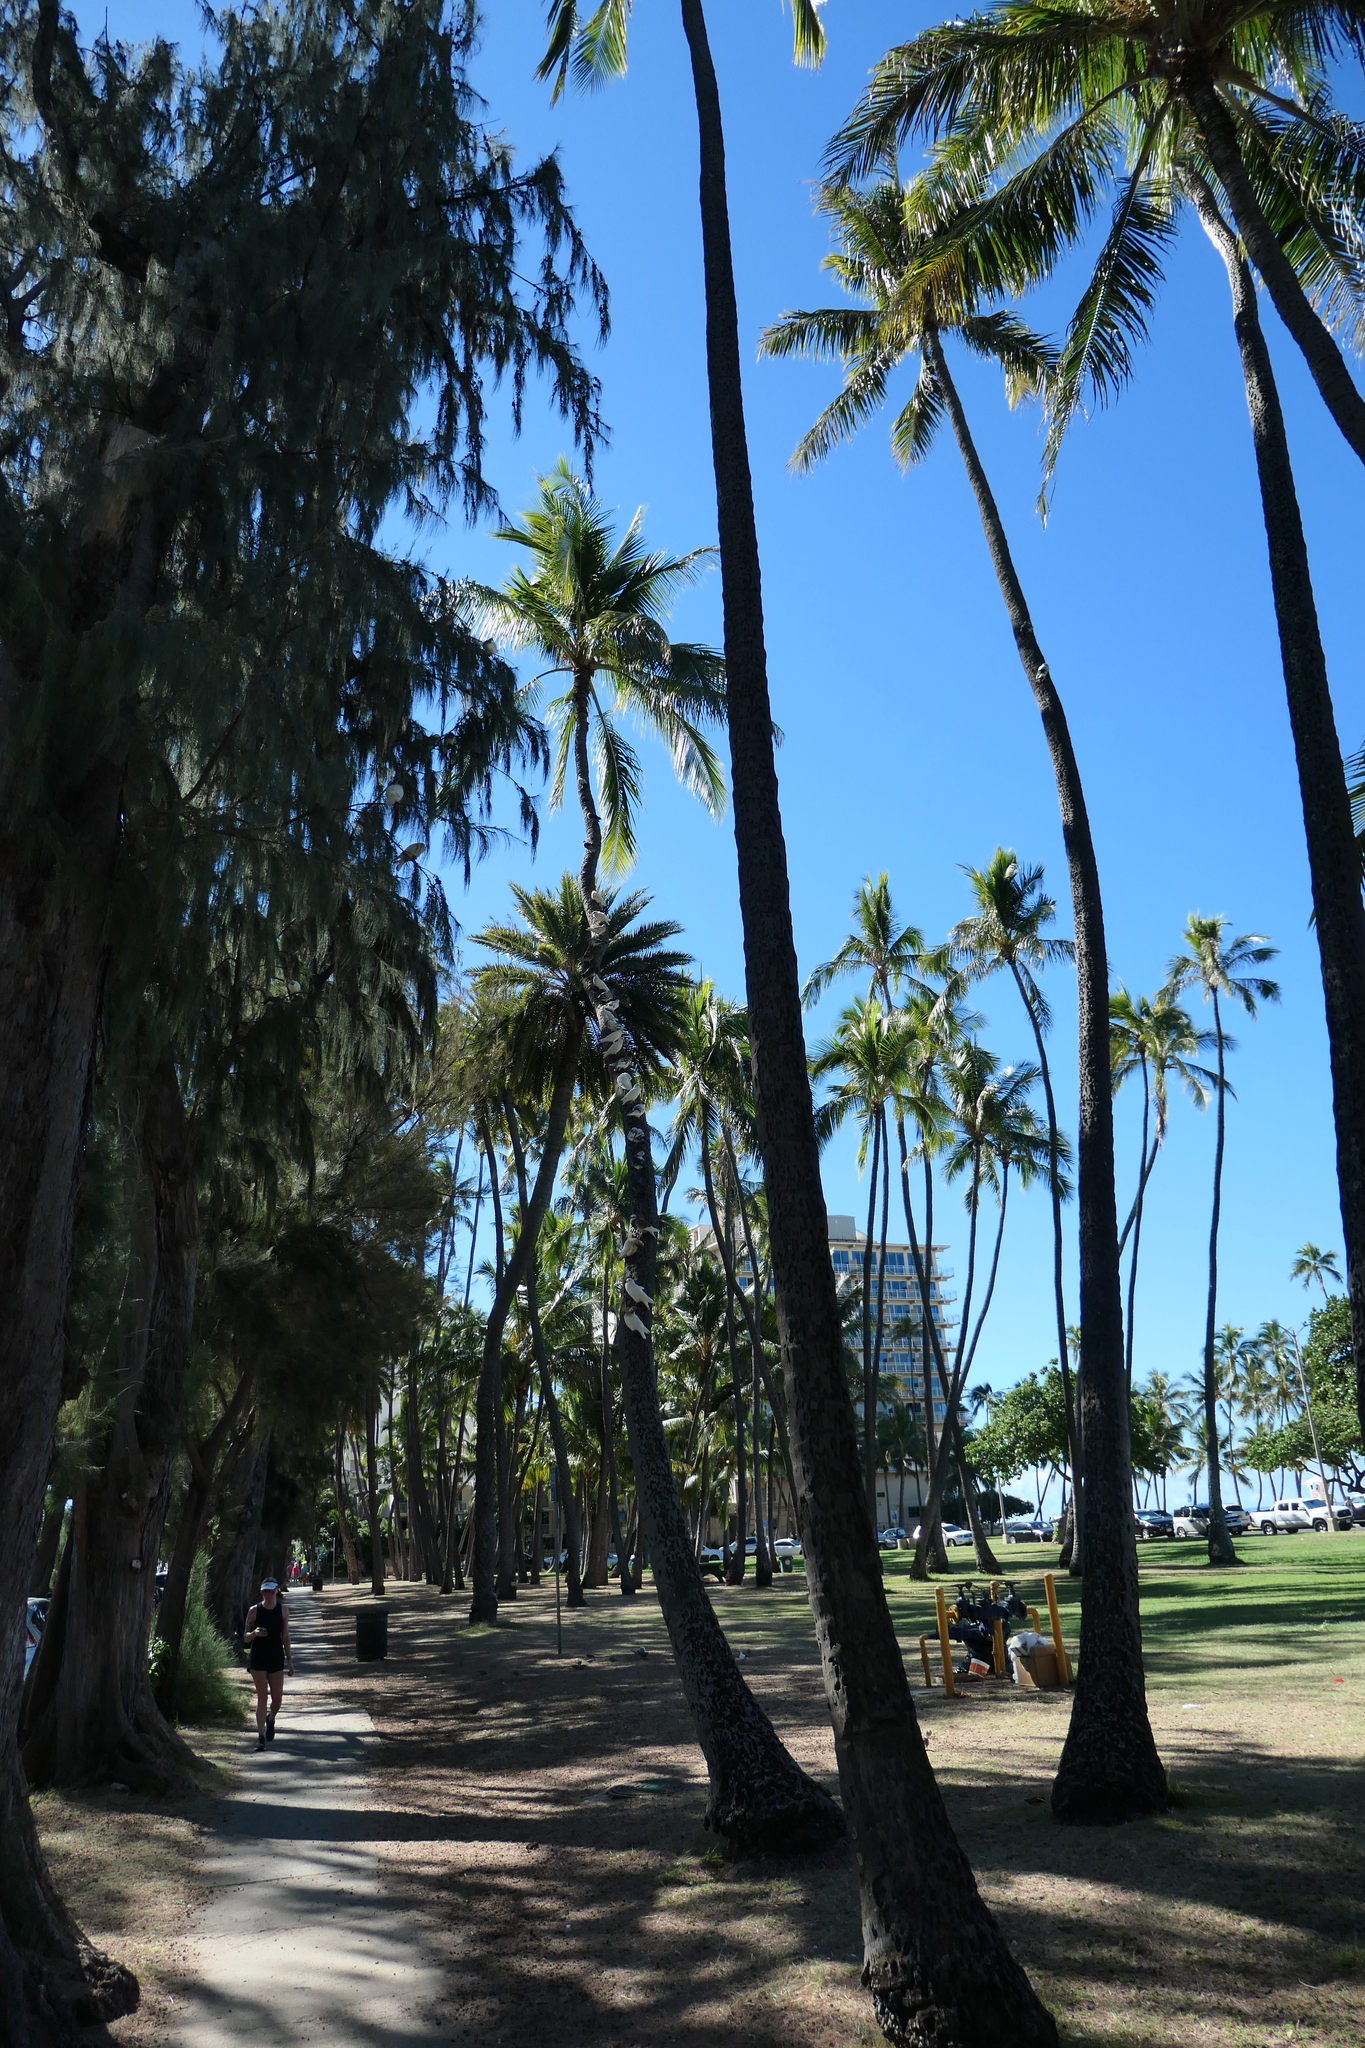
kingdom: Plantae
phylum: Tracheophyta
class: Liliopsida
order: Arecales
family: Arecaceae
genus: Cocos
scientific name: Cocos nucifera
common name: Coconut palm
